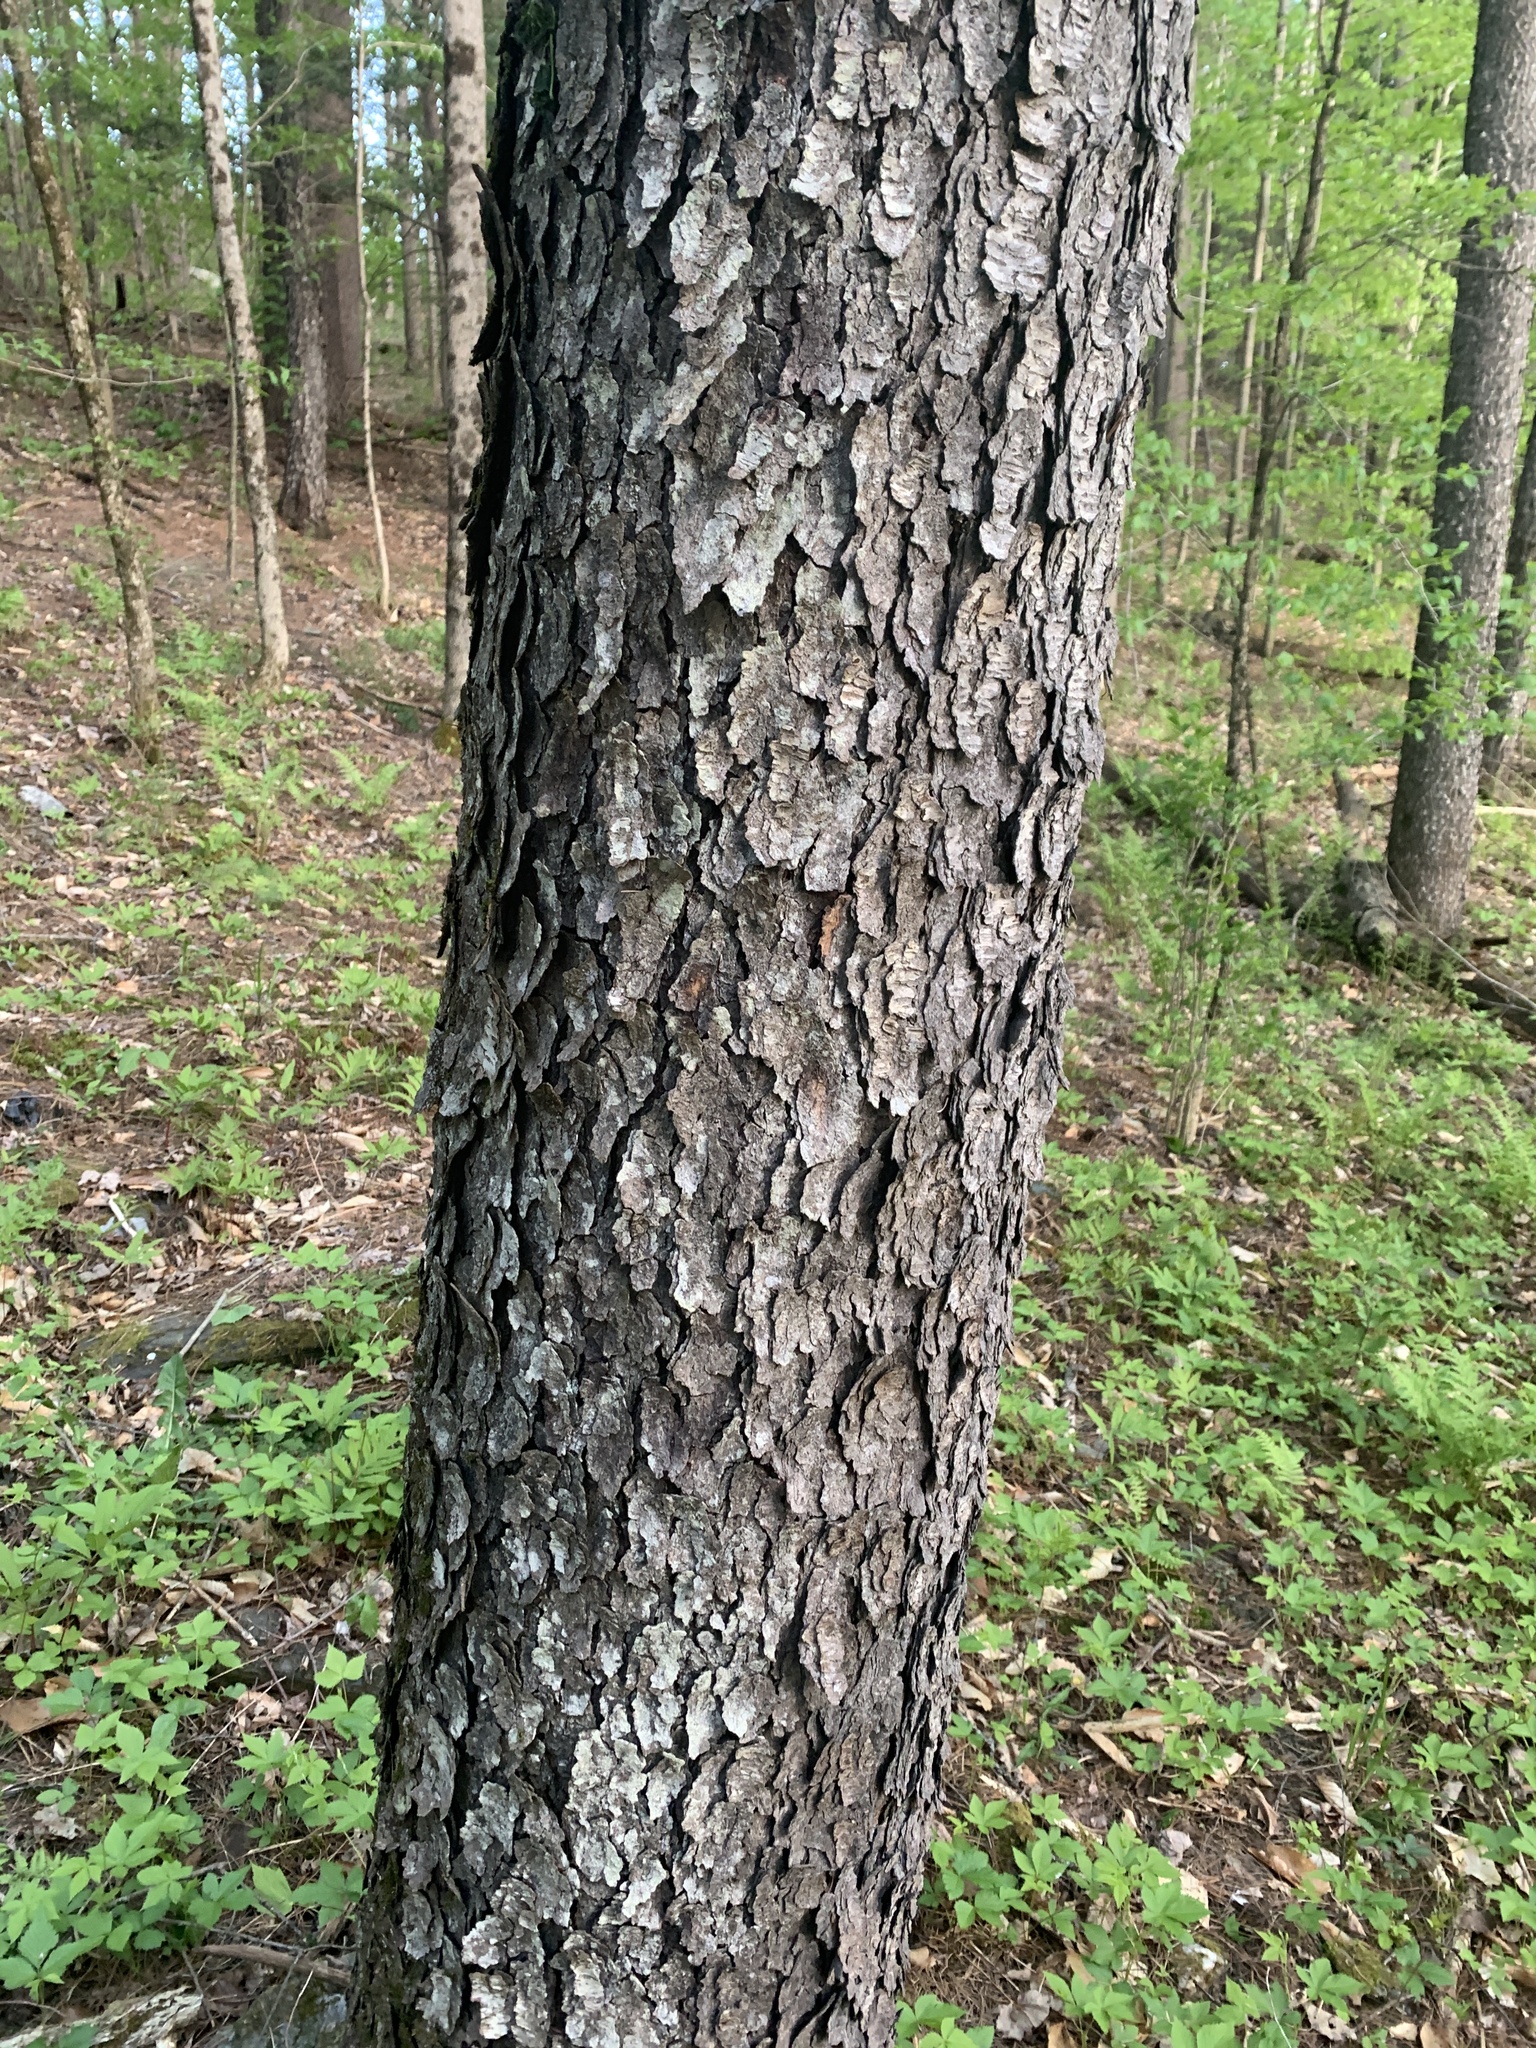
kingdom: Plantae
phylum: Tracheophyta
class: Magnoliopsida
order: Rosales
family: Rosaceae
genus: Prunus
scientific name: Prunus serotina
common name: Black cherry
